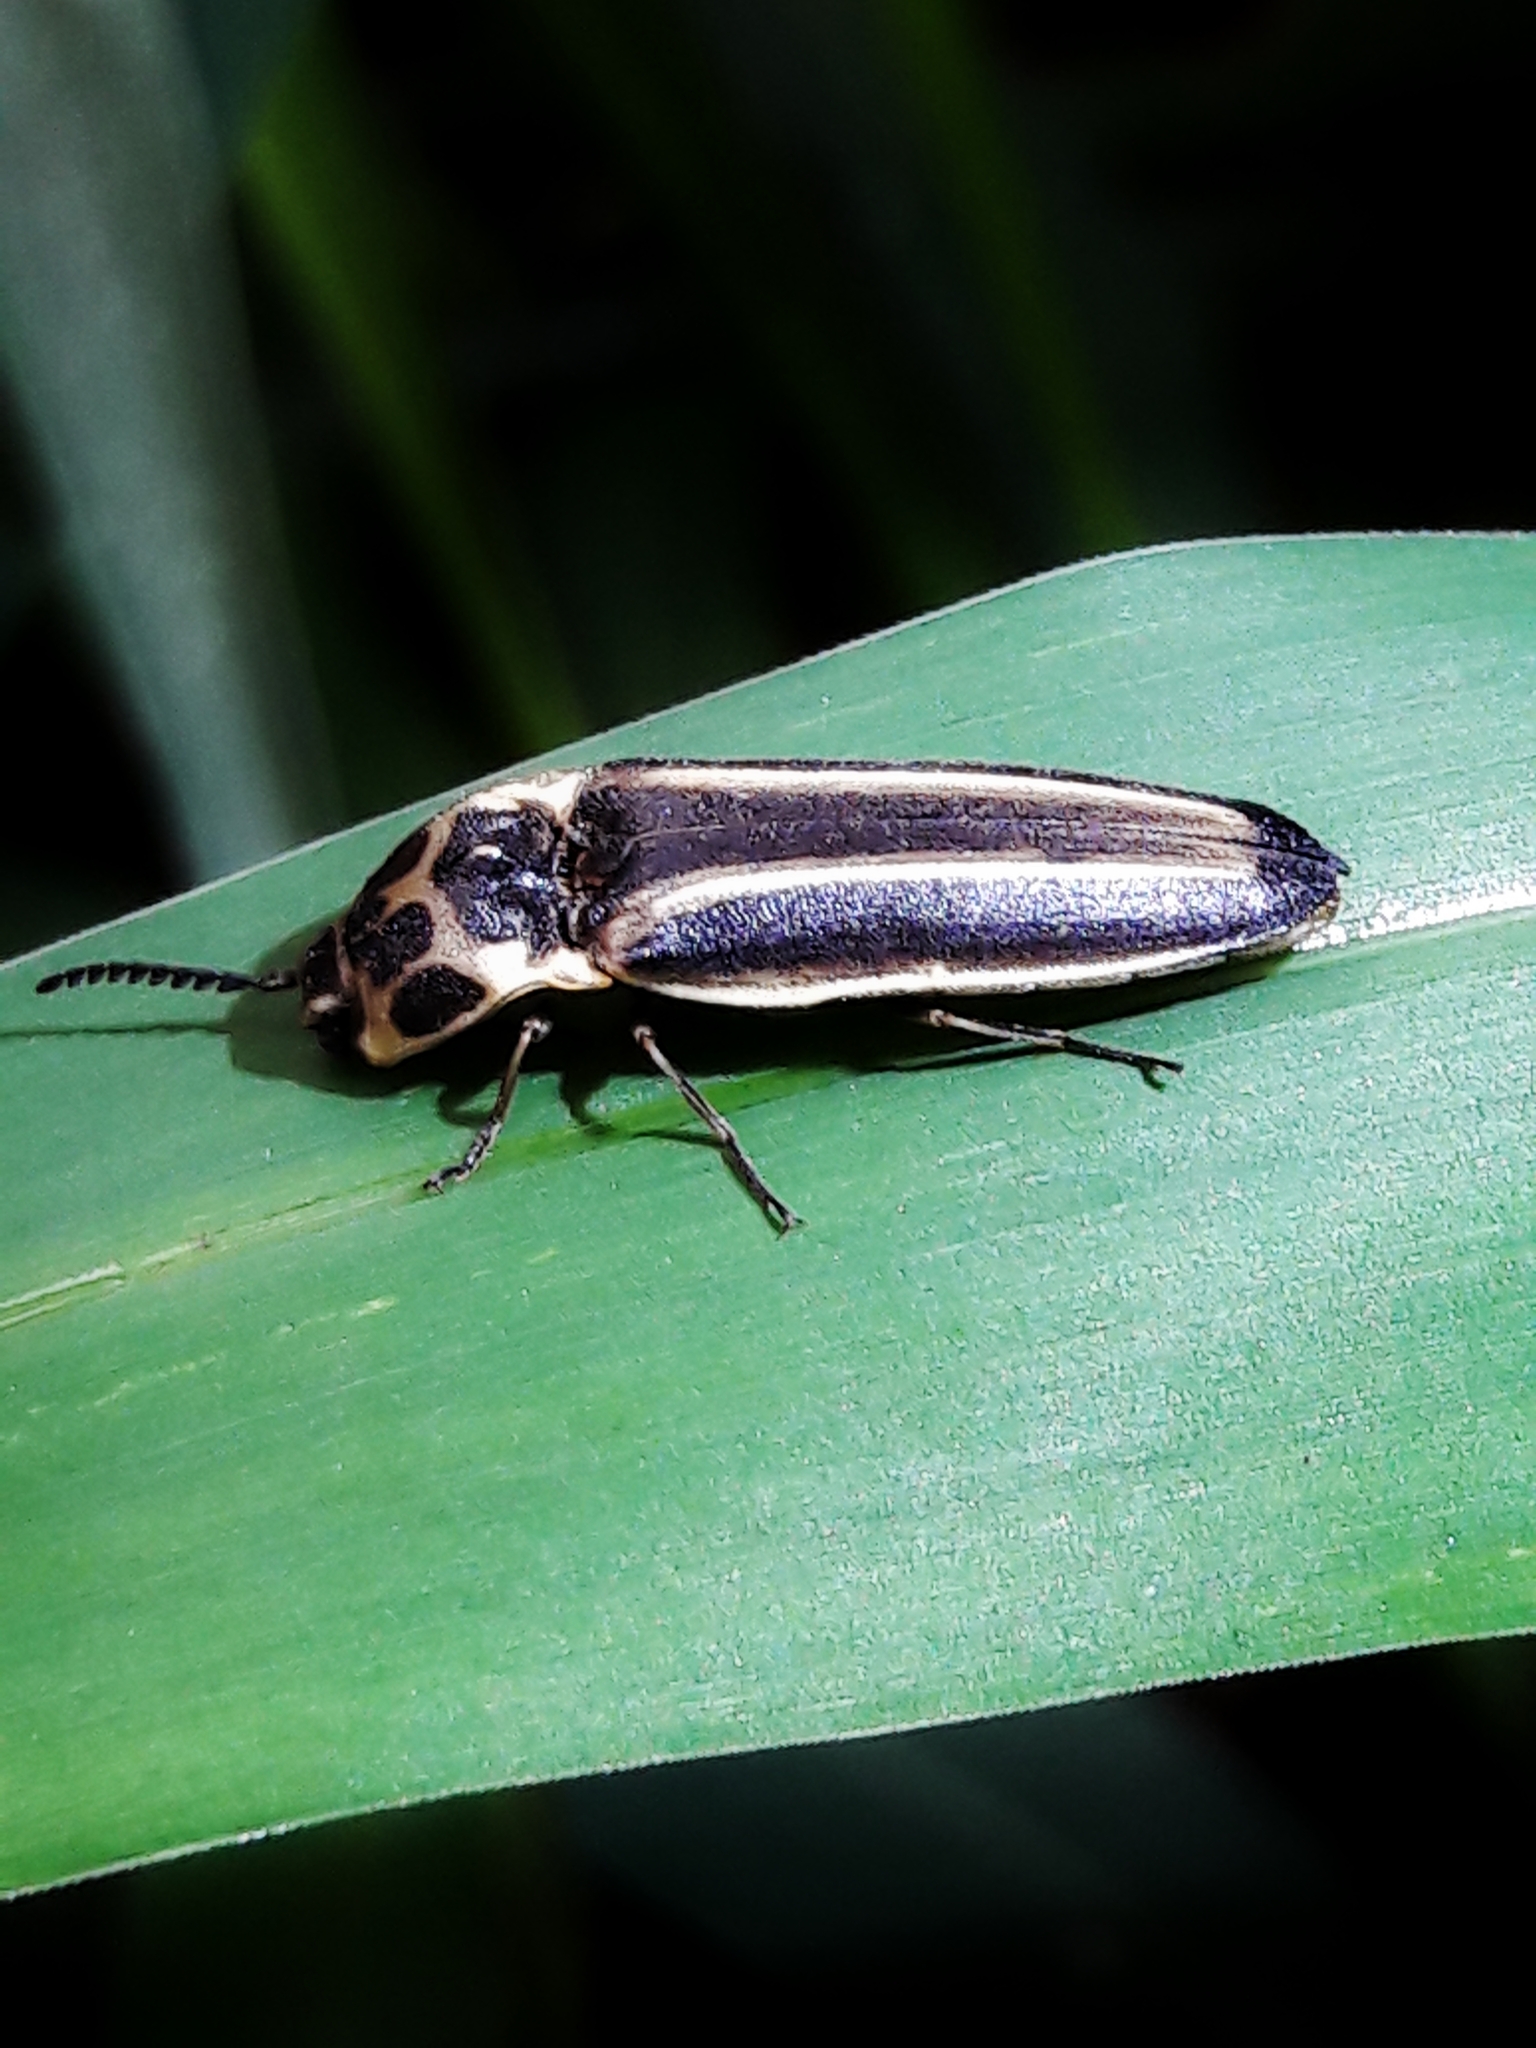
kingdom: Animalia
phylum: Arthropoda
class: Insecta
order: Coleoptera
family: Elateridae
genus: Adelocera
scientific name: Adelocera
